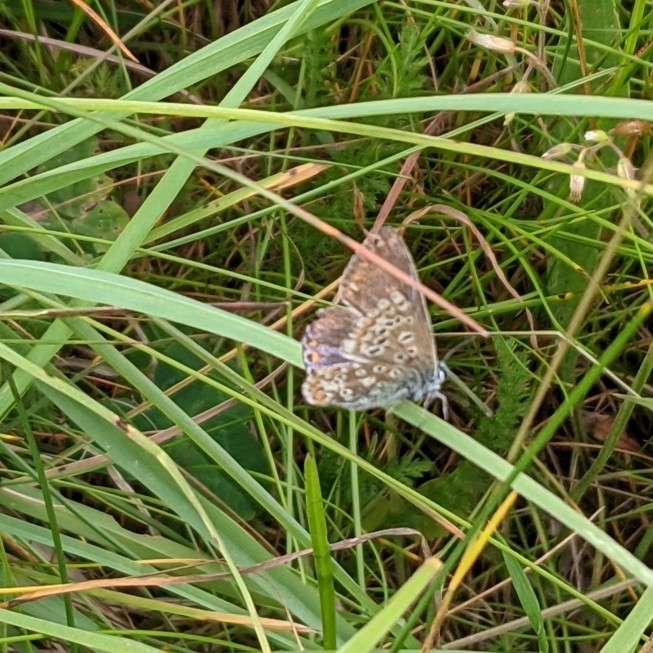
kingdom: Animalia
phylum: Arthropoda
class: Insecta
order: Lepidoptera
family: Lycaenidae
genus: Polyommatus
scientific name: Polyommatus icarus
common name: Common blue
